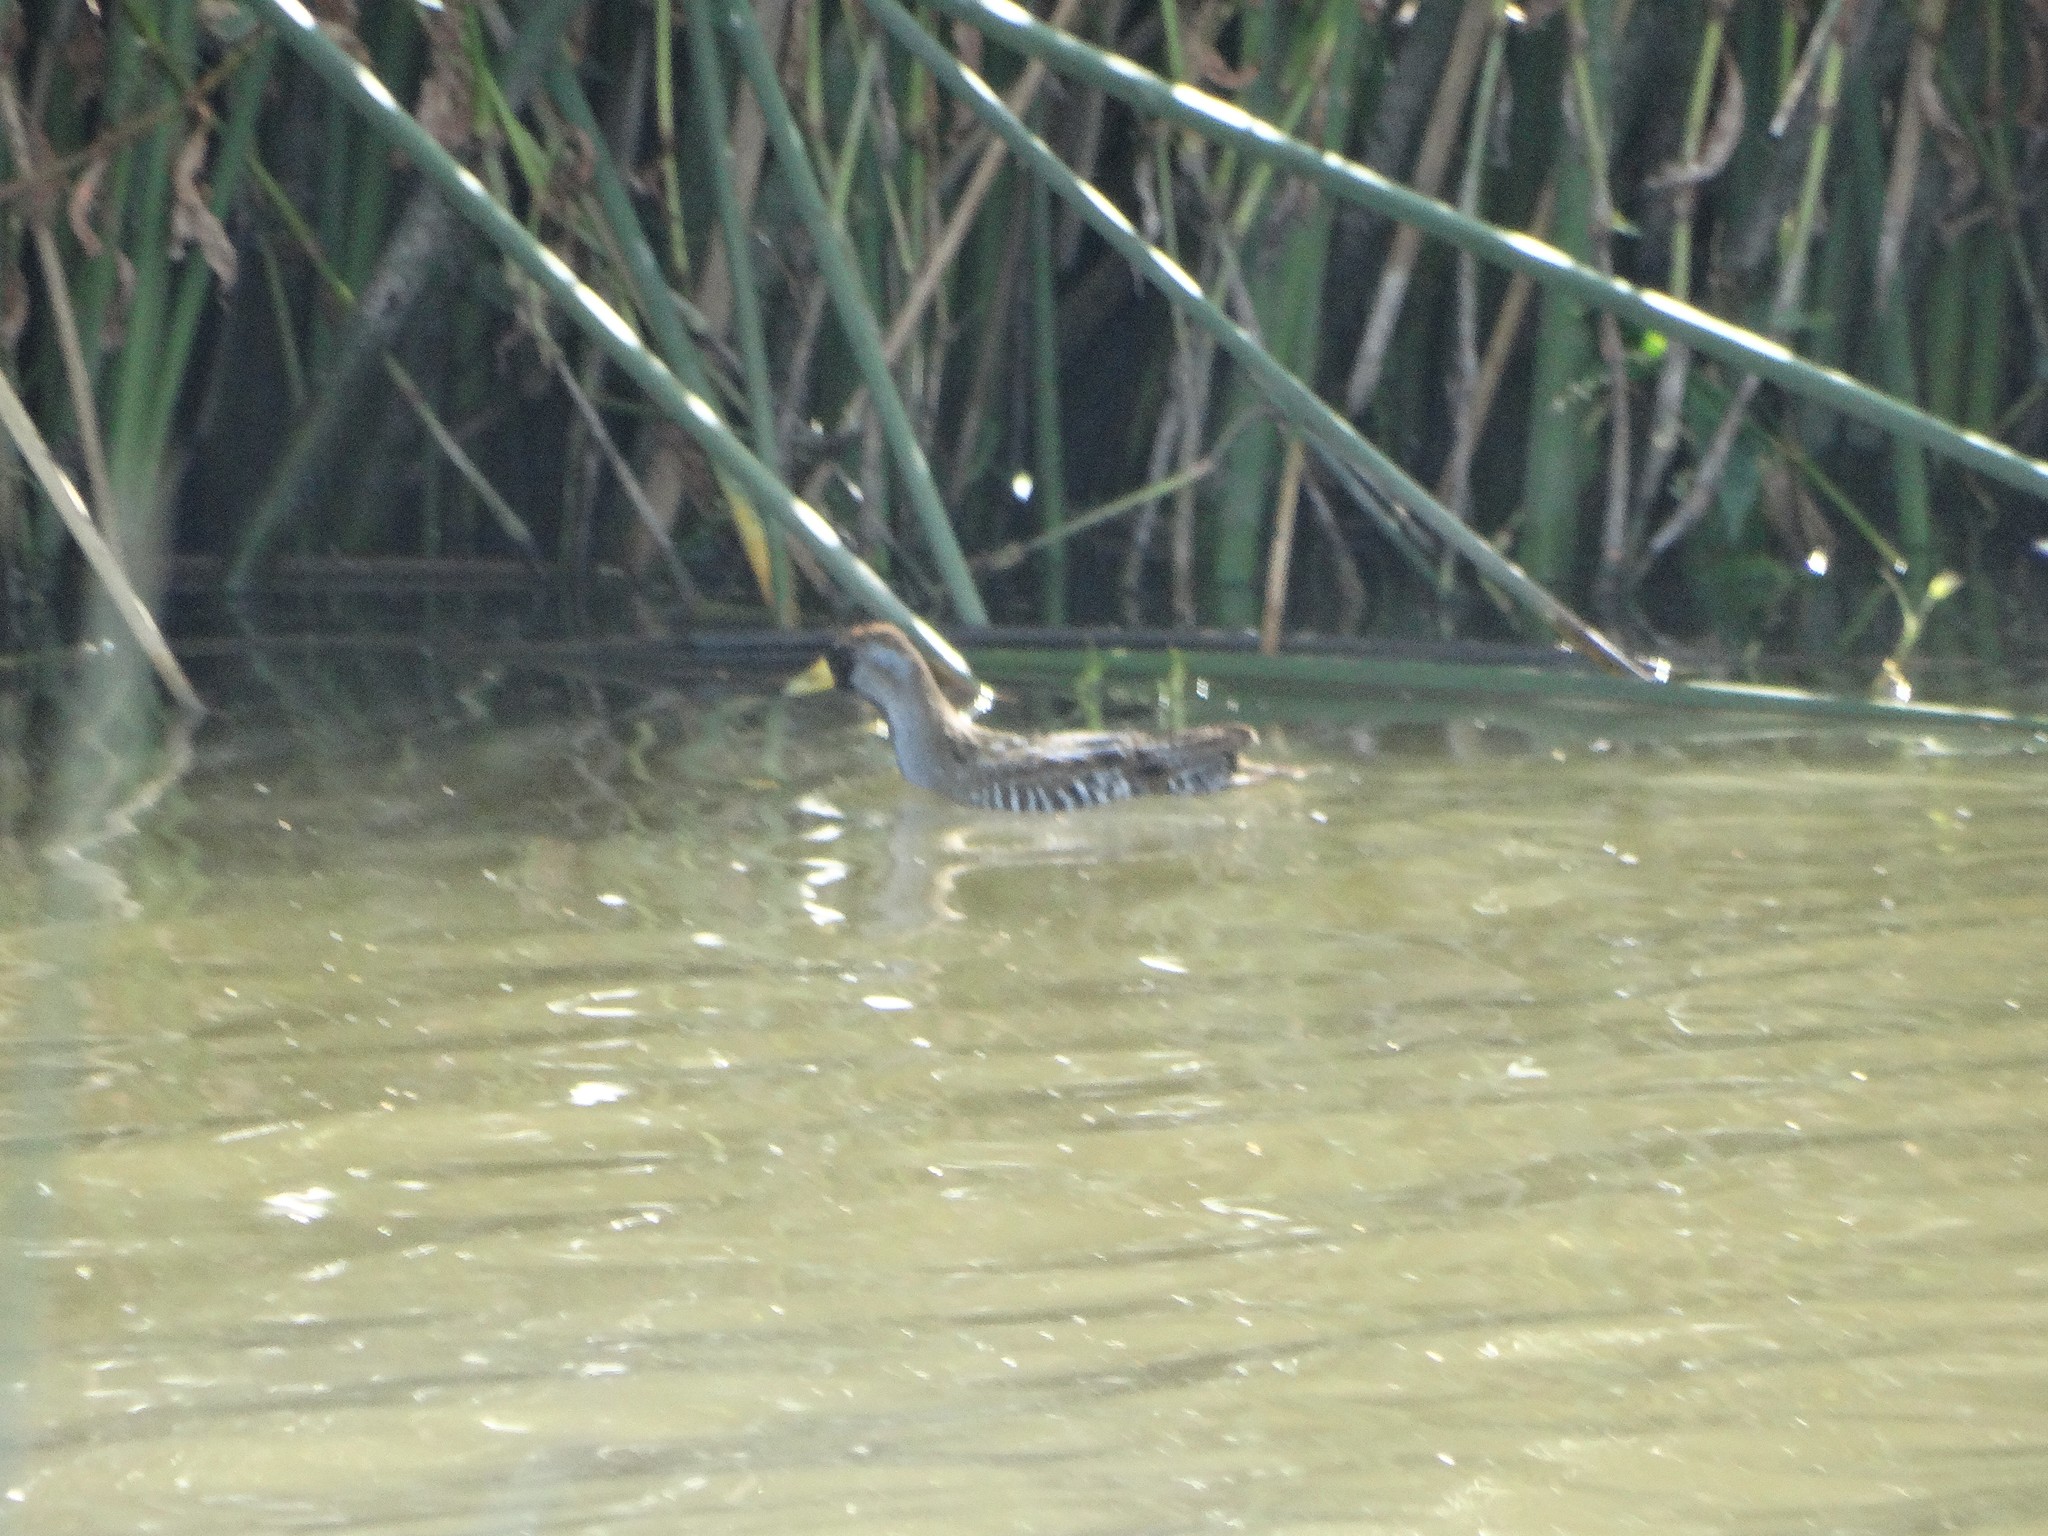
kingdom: Animalia
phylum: Chordata
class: Aves
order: Gruiformes
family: Rallidae
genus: Porzana
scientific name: Porzana carolina
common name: Sora
